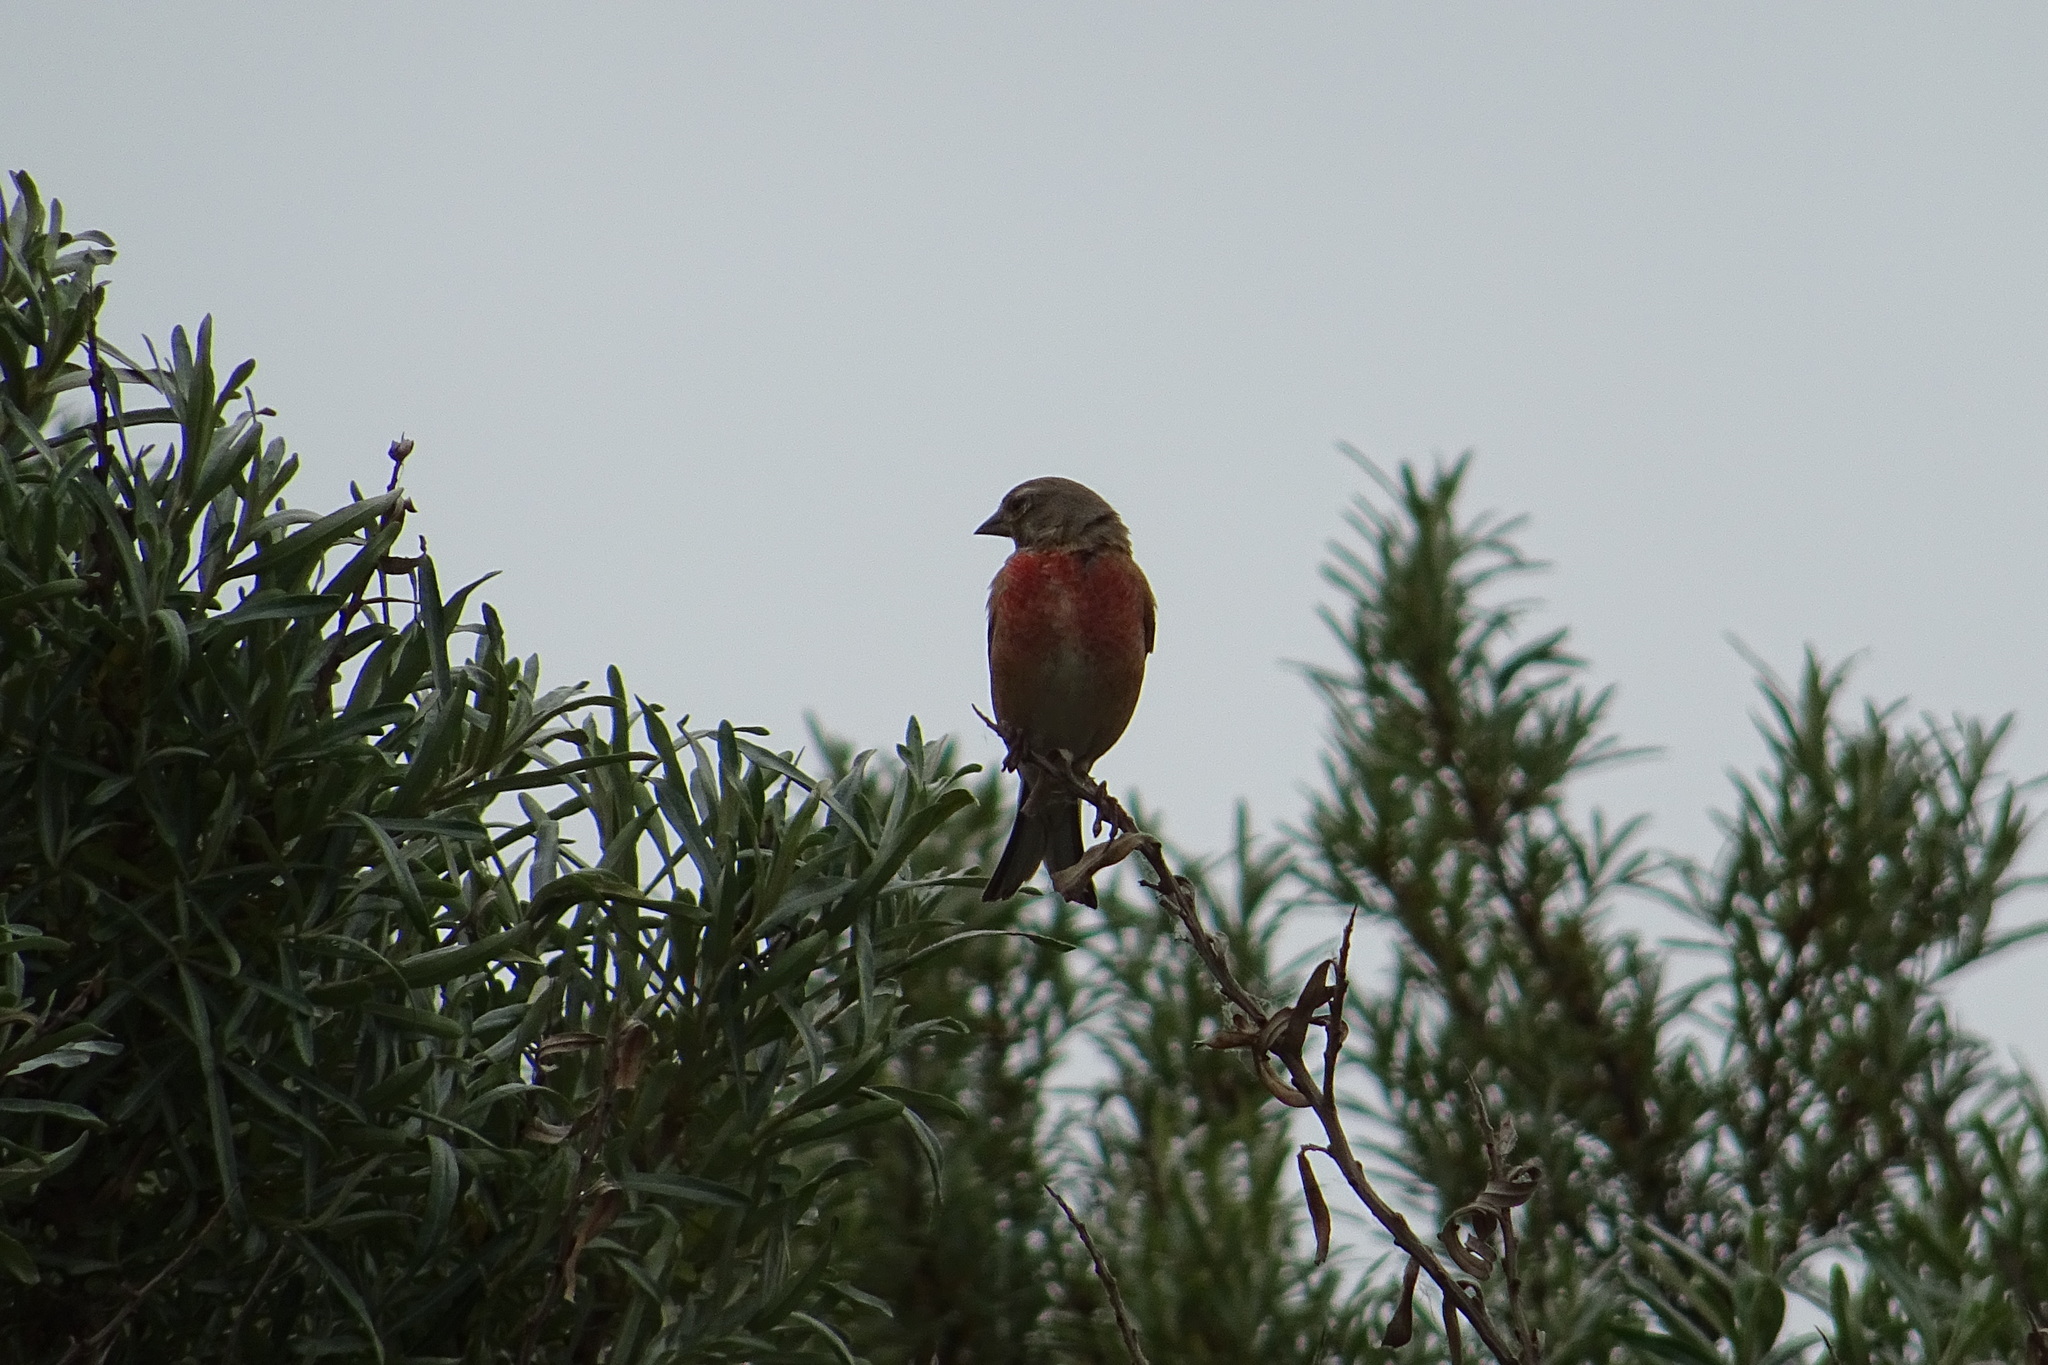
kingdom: Animalia
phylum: Chordata
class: Aves
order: Passeriformes
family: Fringillidae
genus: Linaria
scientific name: Linaria cannabina
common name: Common linnet
